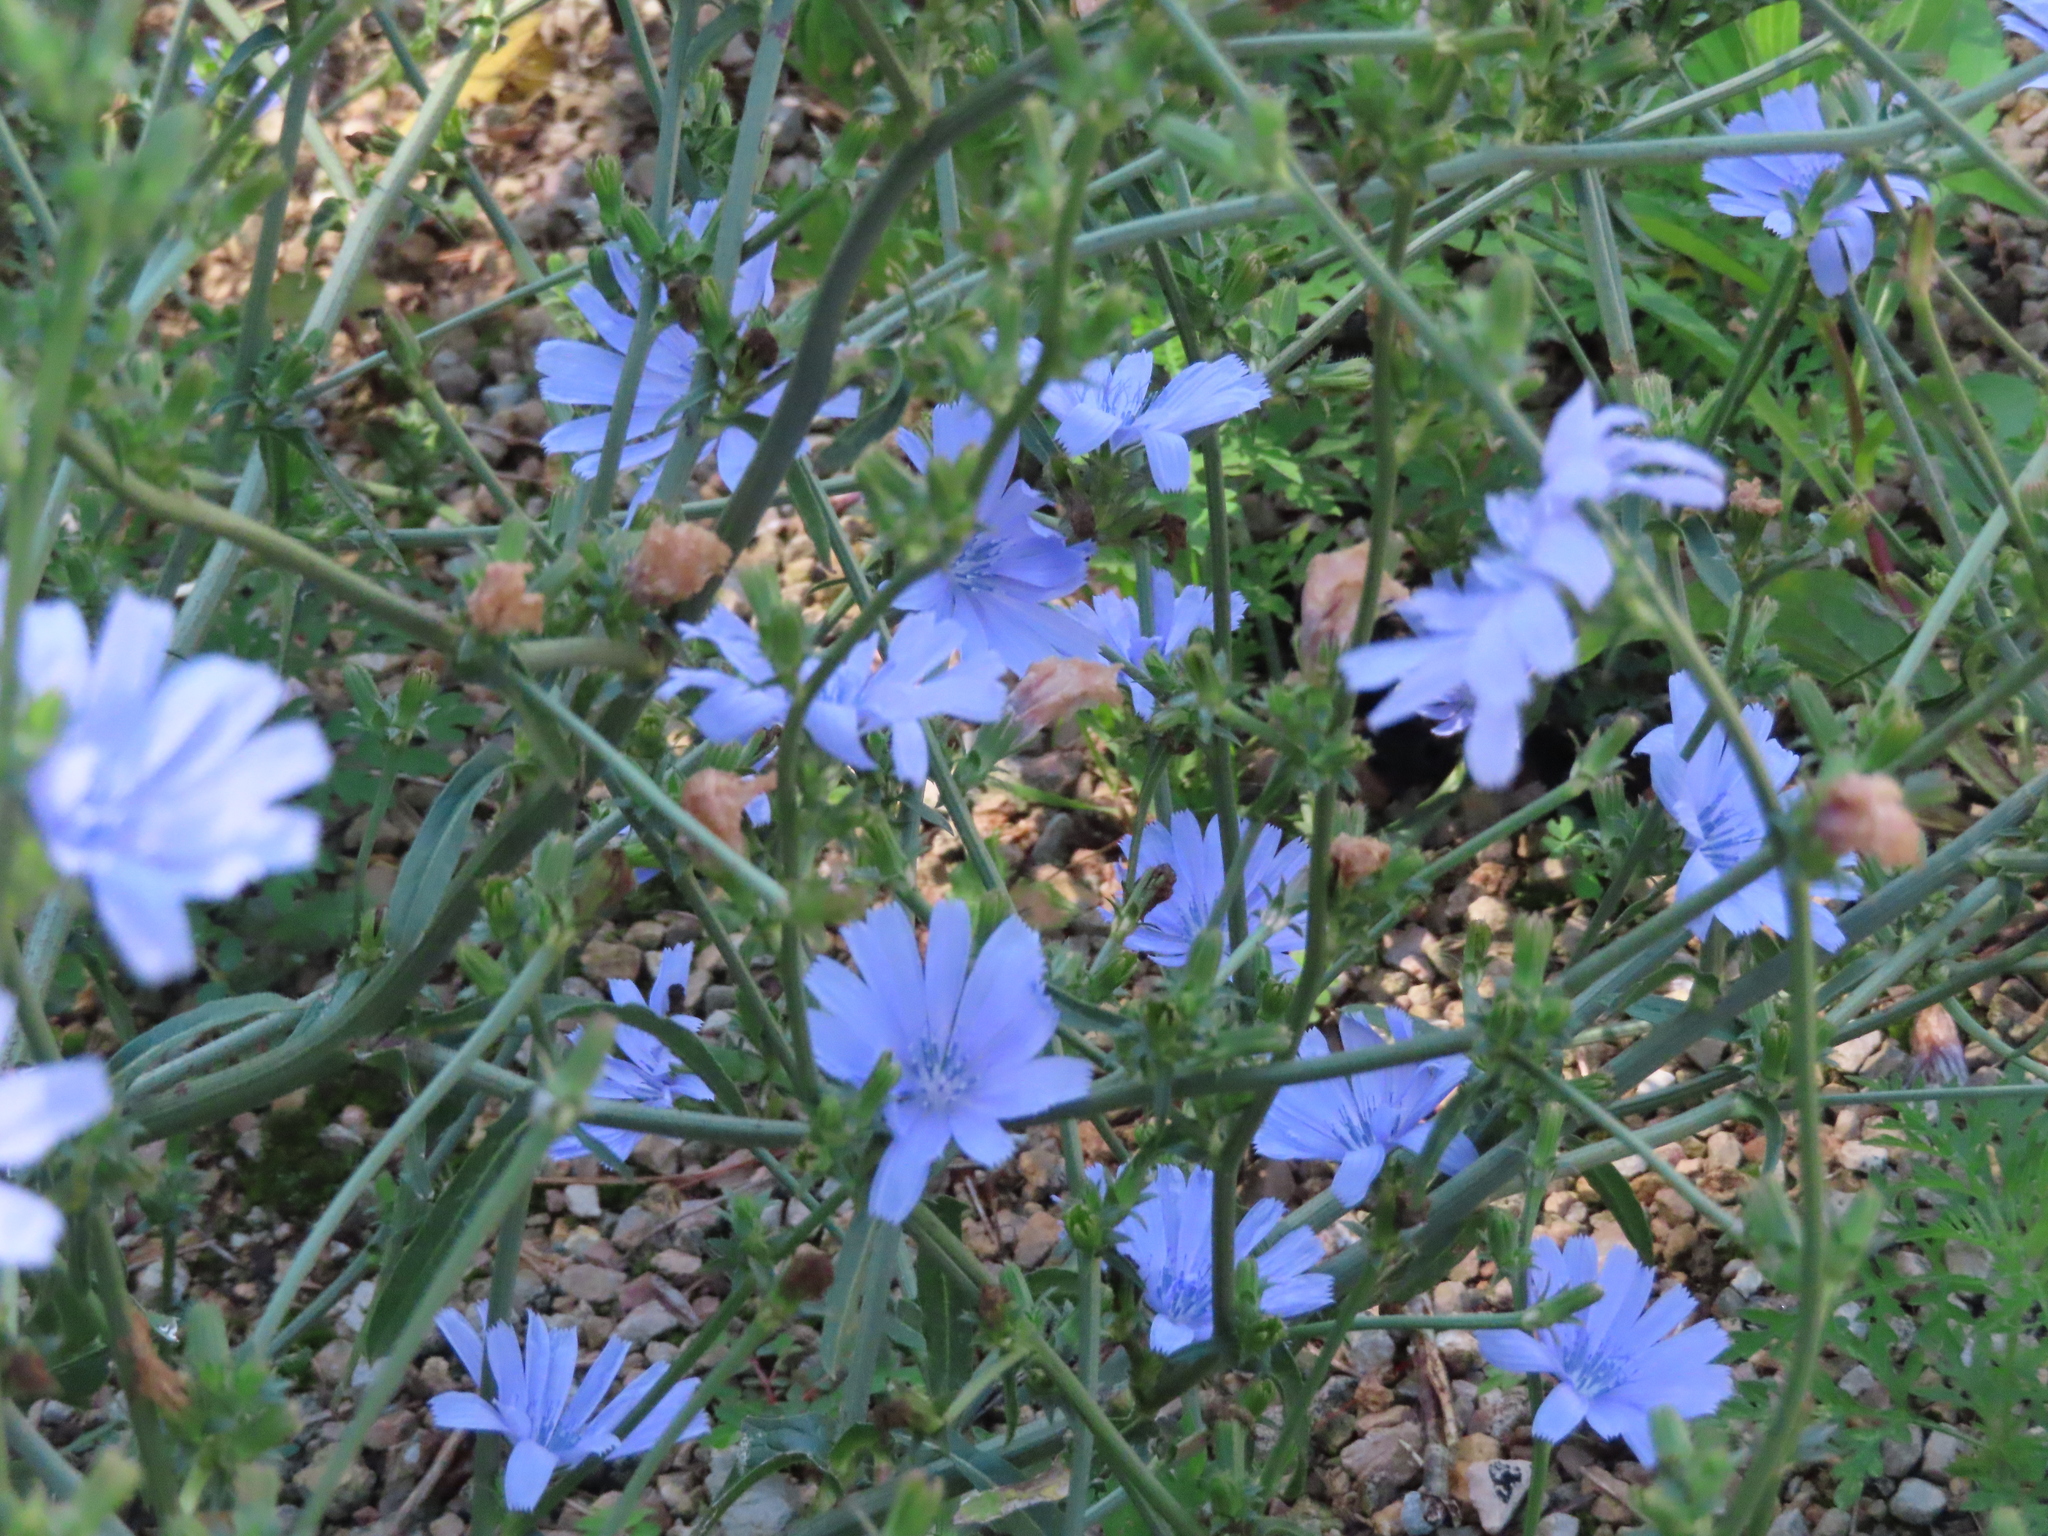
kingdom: Plantae
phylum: Tracheophyta
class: Magnoliopsida
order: Asterales
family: Asteraceae
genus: Cichorium
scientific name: Cichorium intybus
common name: Chicory
